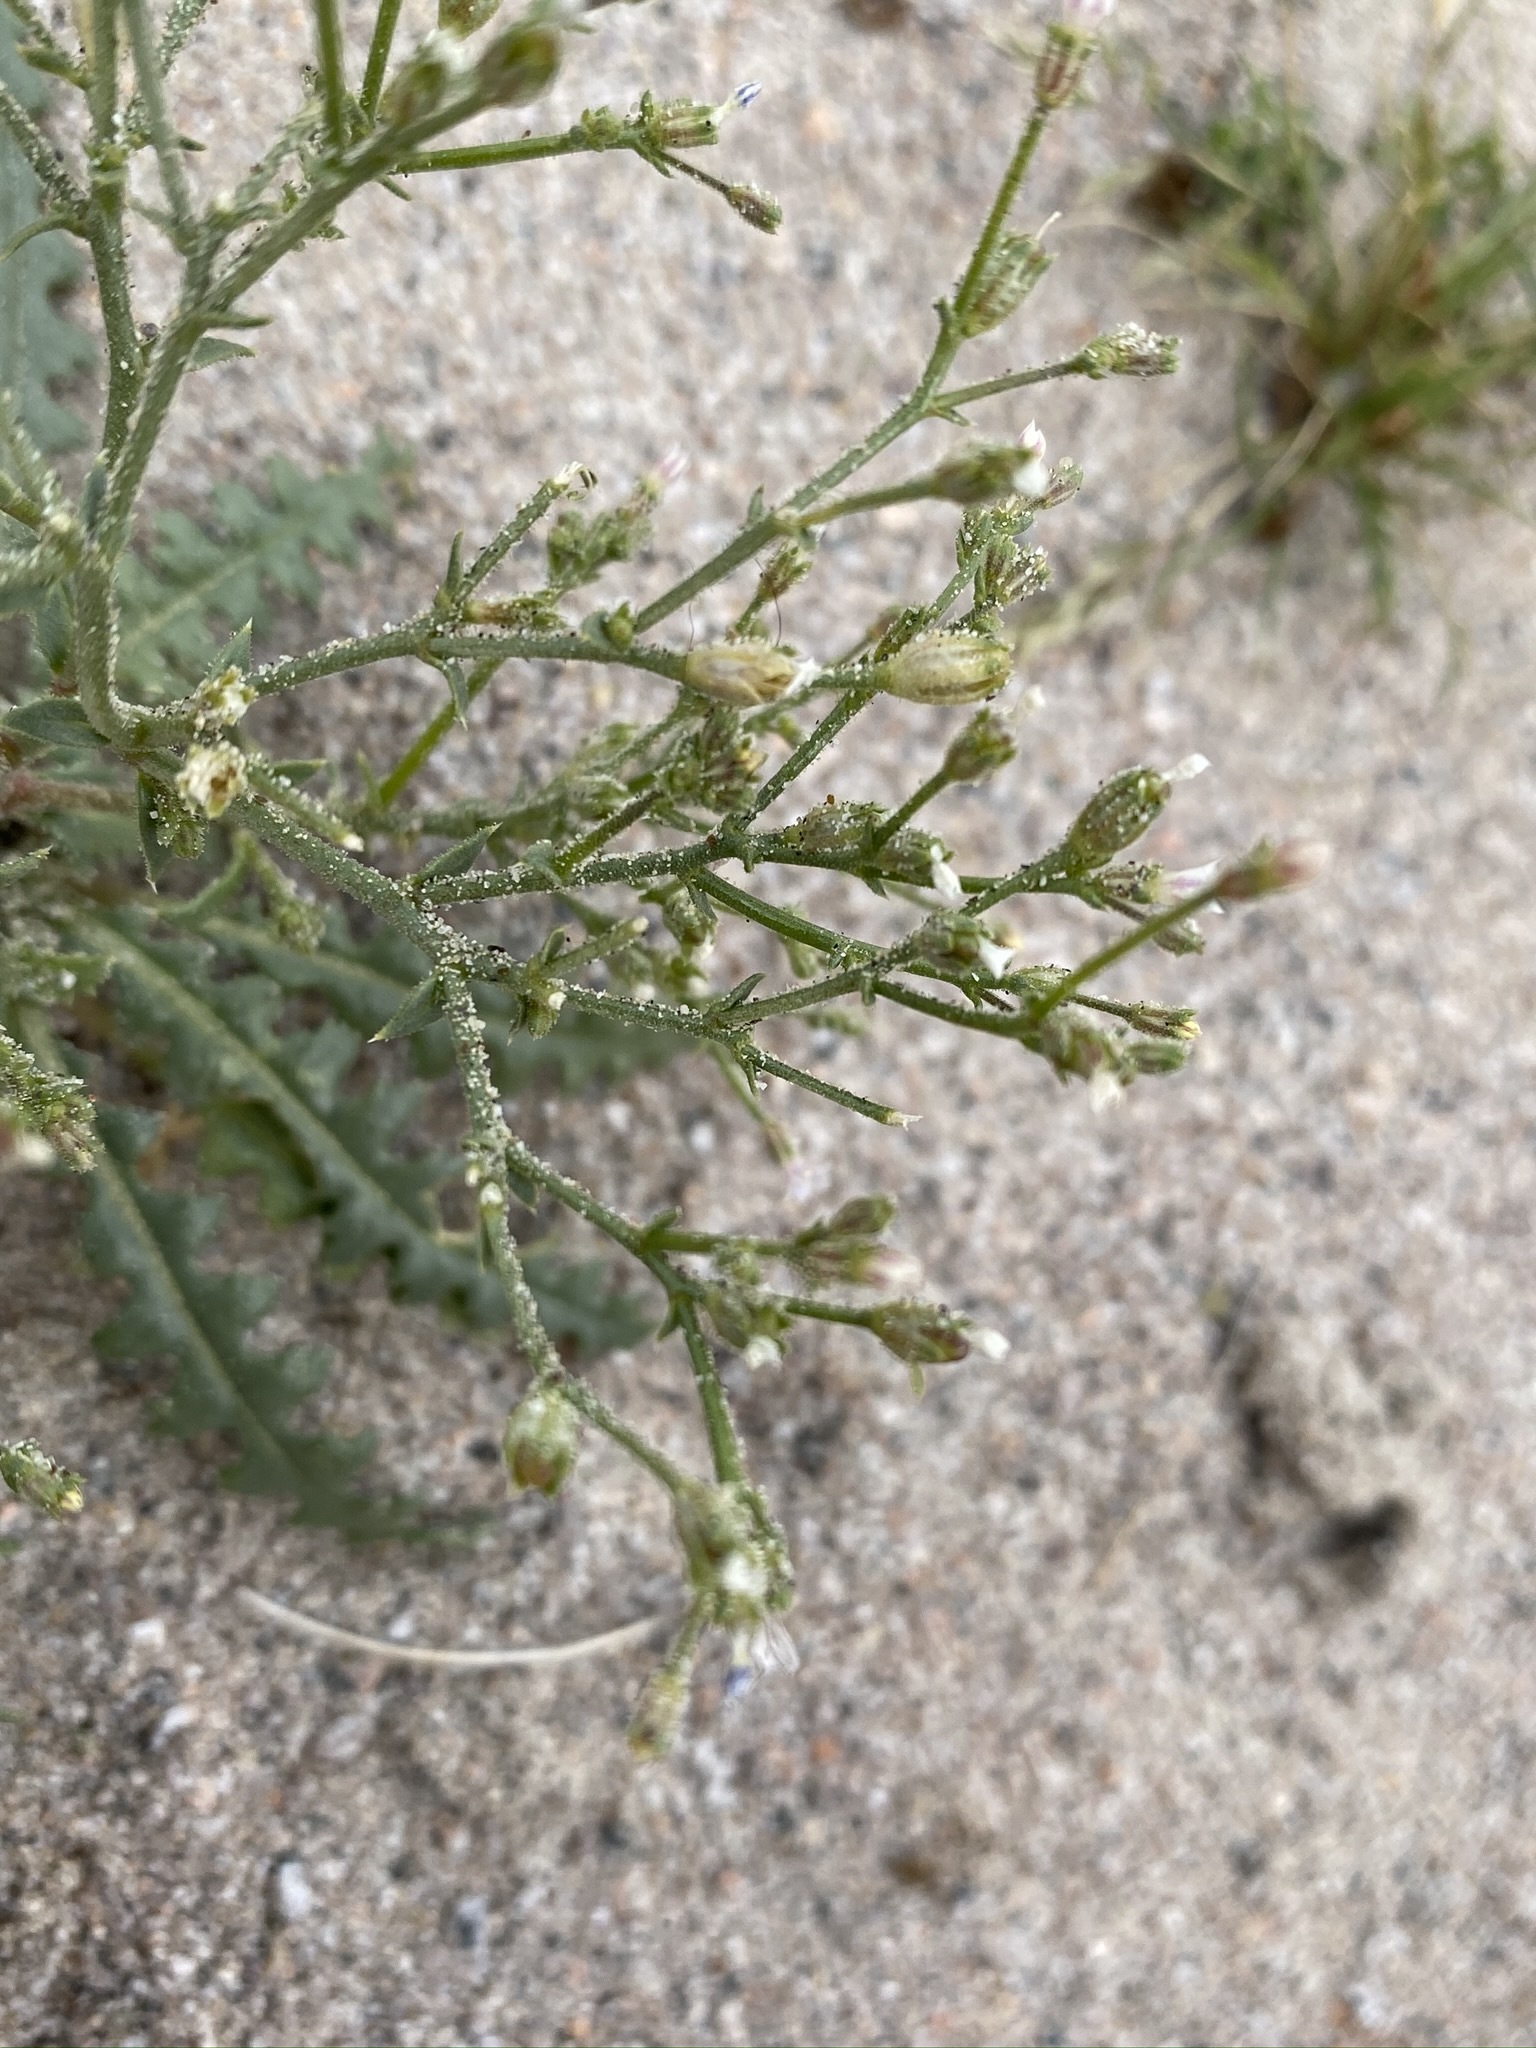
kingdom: Plantae
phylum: Tracheophyta
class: Magnoliopsida
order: Ericales
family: Polemoniaceae
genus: Aliciella
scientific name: Aliciella leptomeria
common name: Sand gilia
